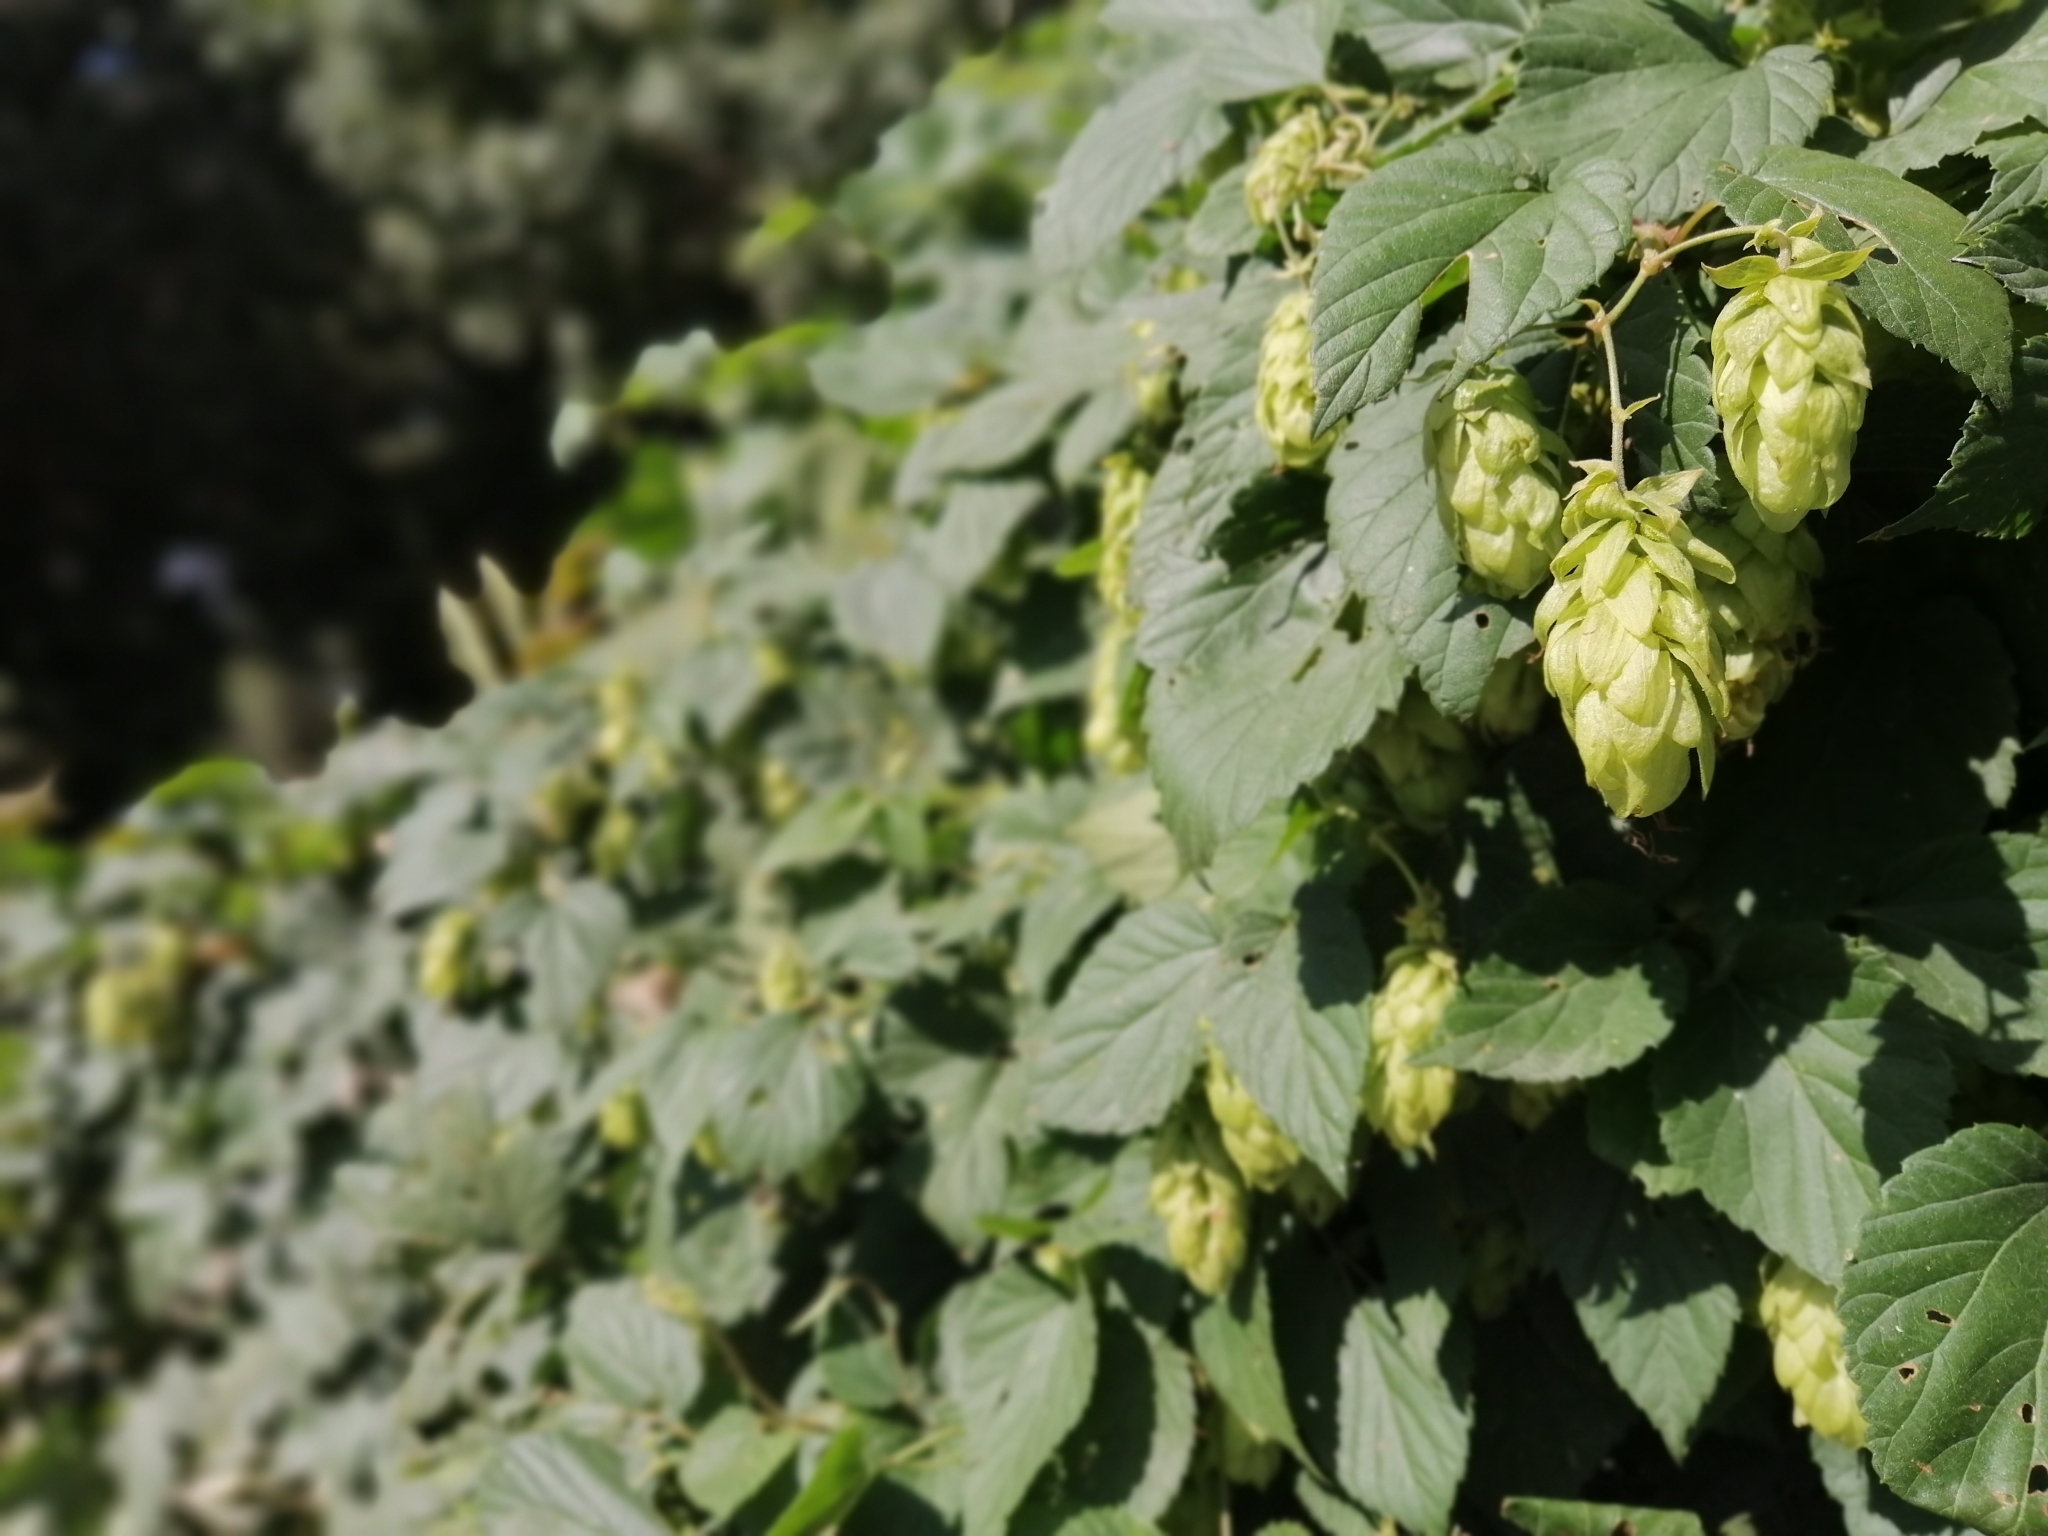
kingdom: Plantae
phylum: Tracheophyta
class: Magnoliopsida
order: Rosales
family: Cannabaceae
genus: Humulus
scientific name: Humulus lupulus
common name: Hop
